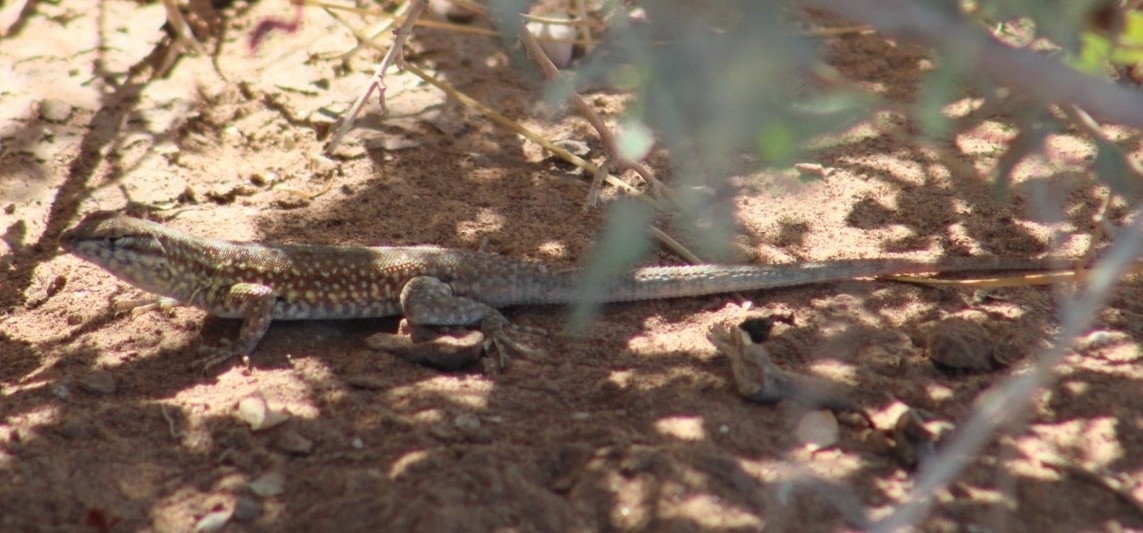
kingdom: Animalia
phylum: Chordata
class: Squamata
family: Phrynosomatidae
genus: Uta
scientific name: Uta stansburiana
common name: Side-blotched lizard
